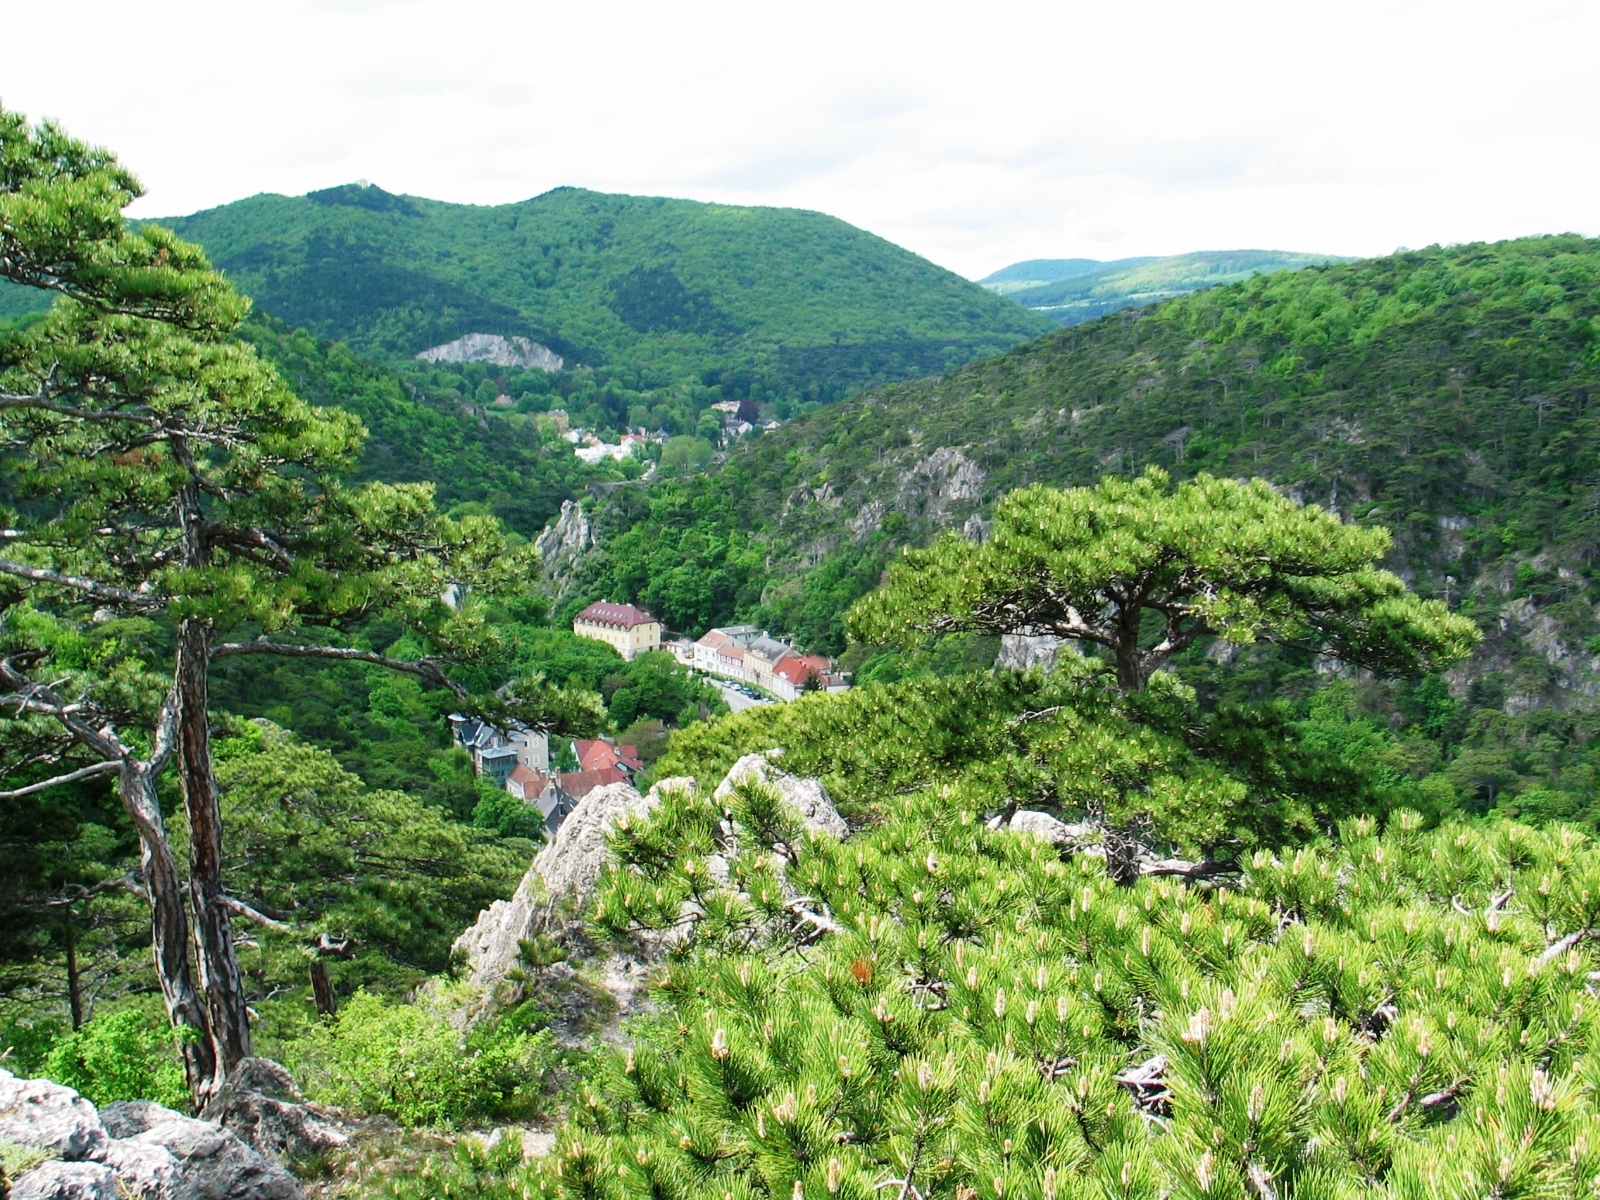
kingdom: Plantae
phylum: Tracheophyta
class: Pinopsida
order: Pinales
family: Pinaceae
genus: Pinus
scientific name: Pinus nigra
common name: Austrian pine
